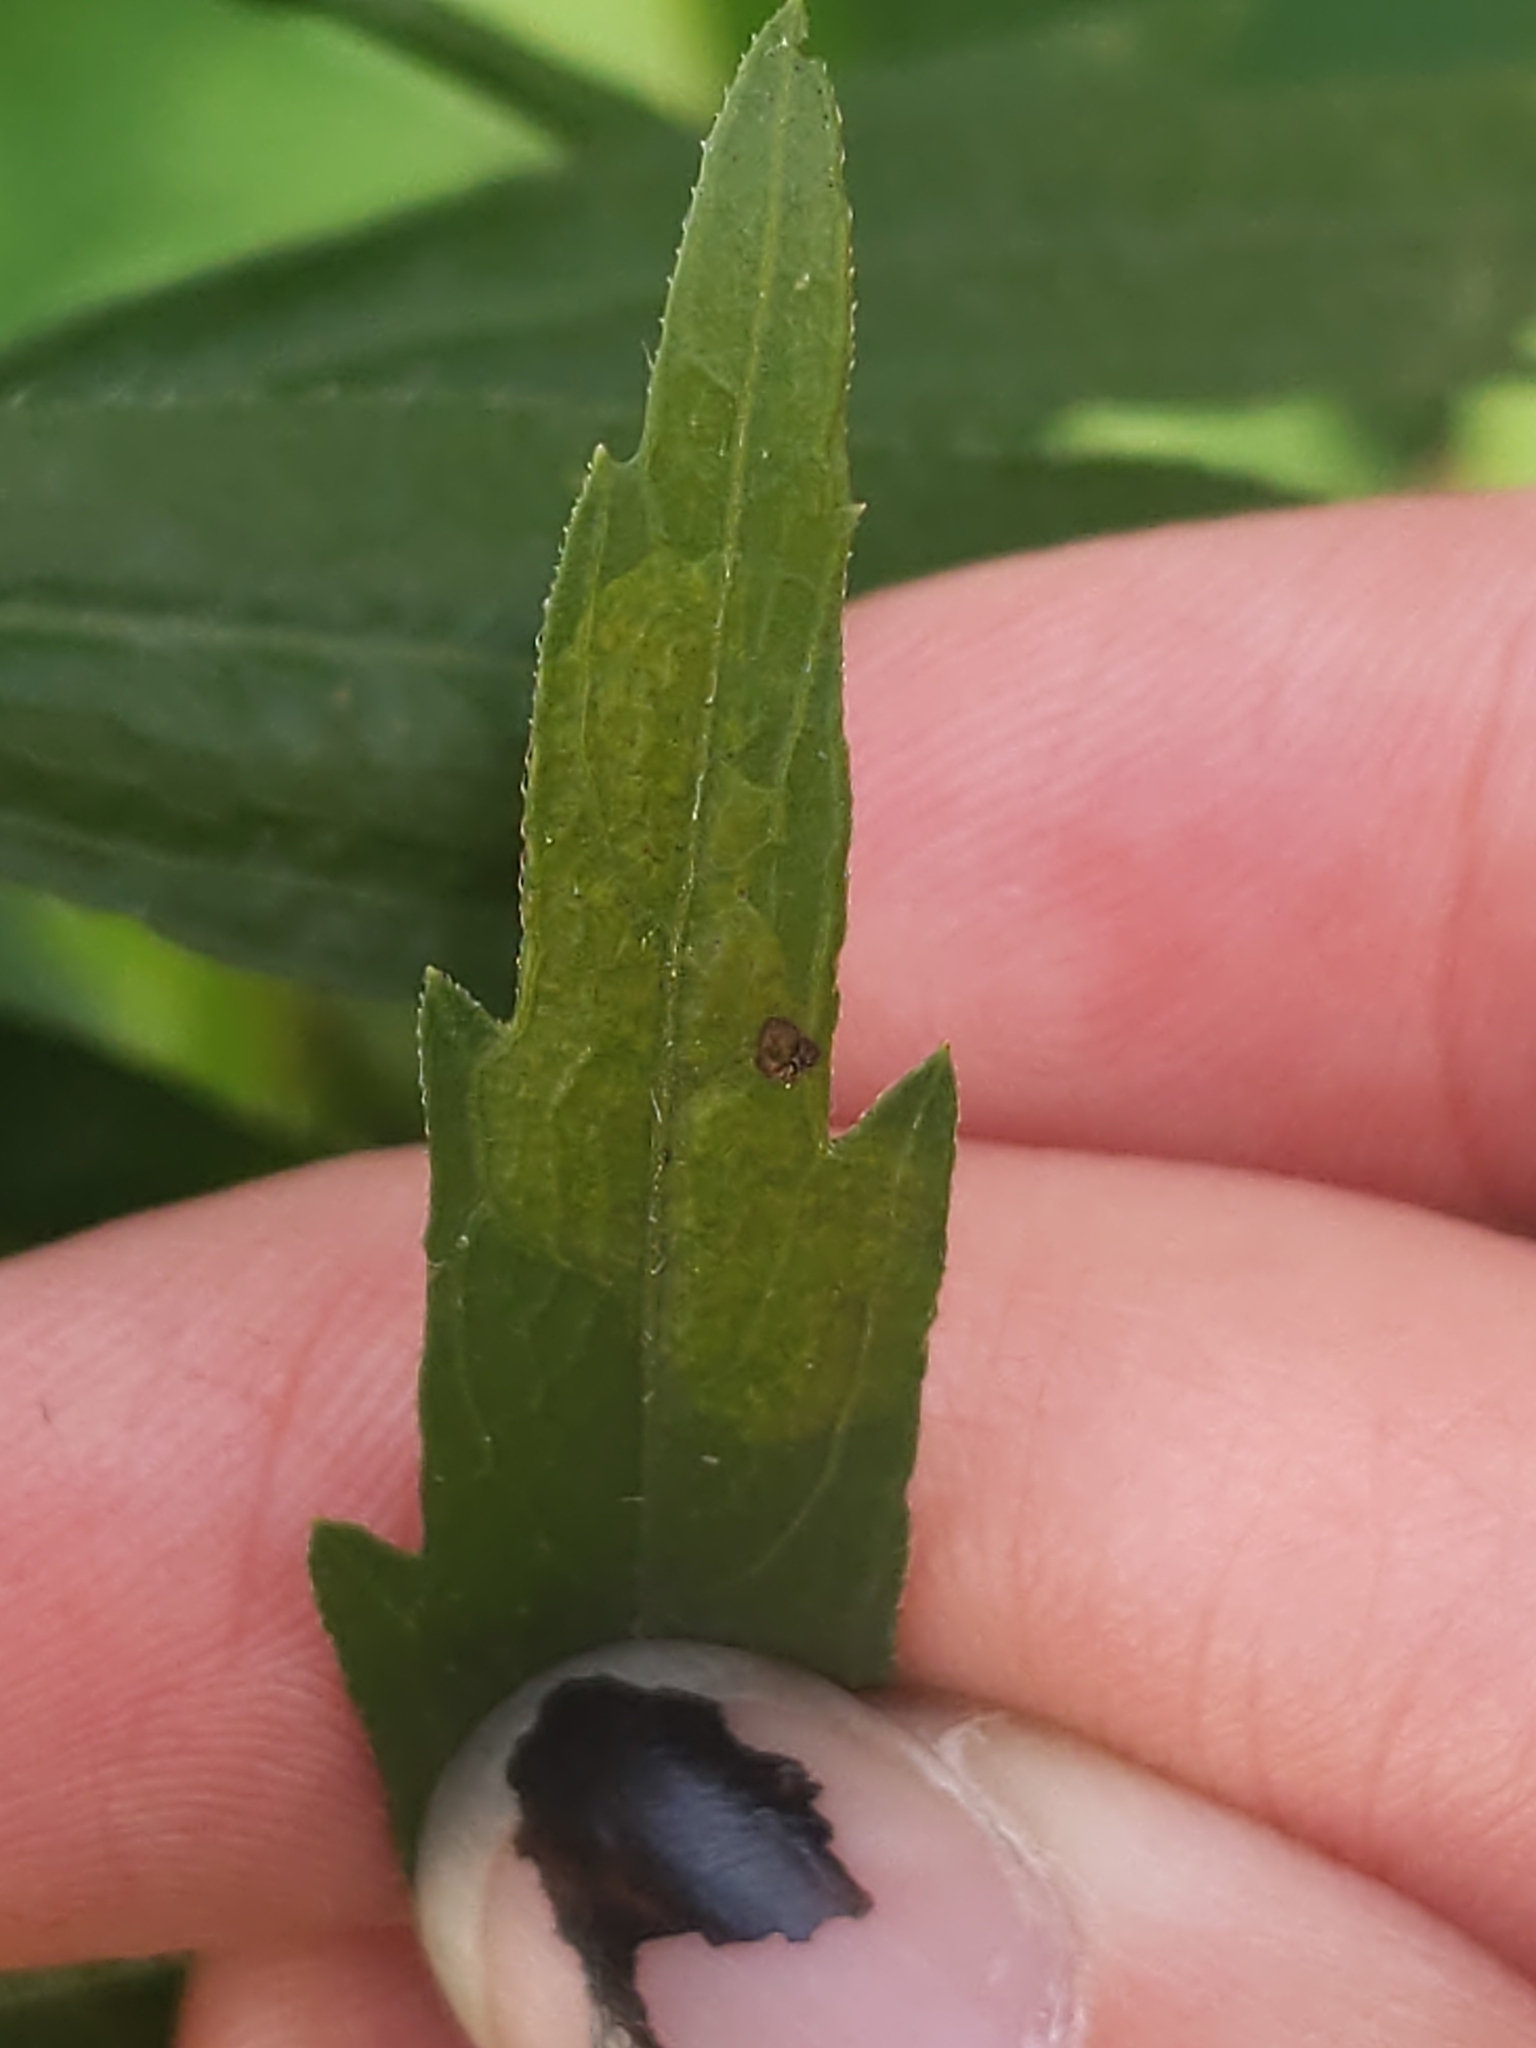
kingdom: Animalia
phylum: Arthropoda
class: Insecta
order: Lepidoptera
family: Gracillariidae
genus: Parectopa
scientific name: Parectopa plantaginisella
